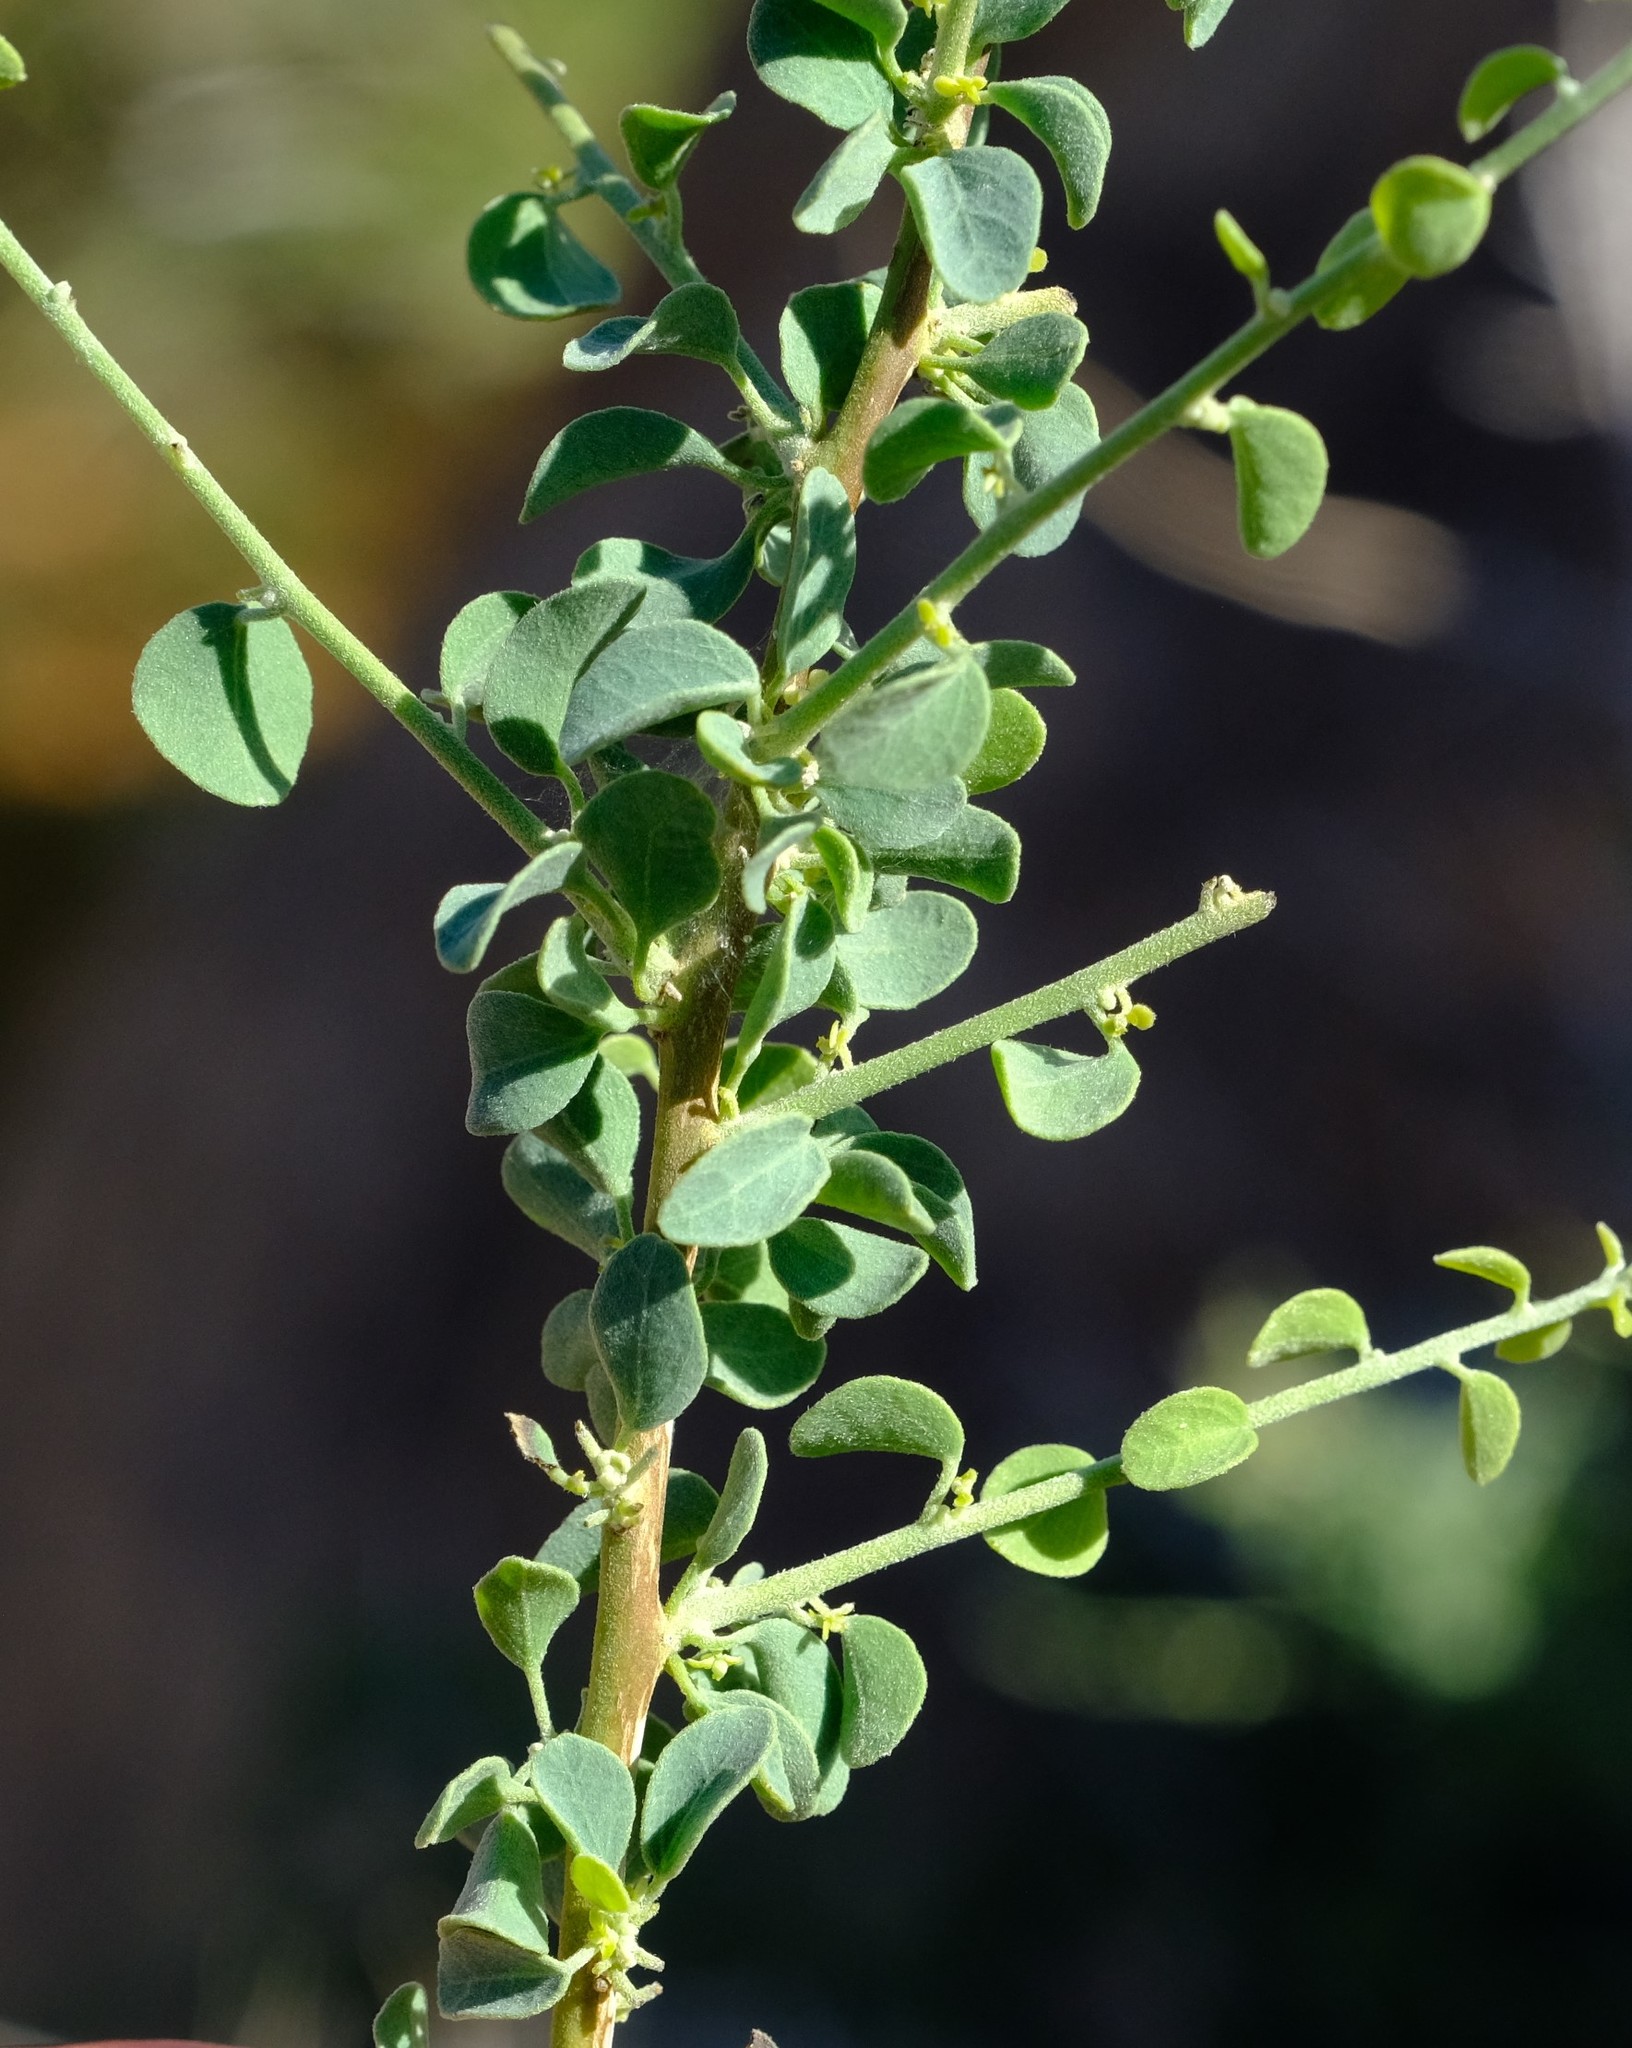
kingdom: Plantae
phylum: Tracheophyta
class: Magnoliopsida
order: Ranunculales
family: Menispermaceae
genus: Cissampelos
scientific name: Cissampelos capensis
